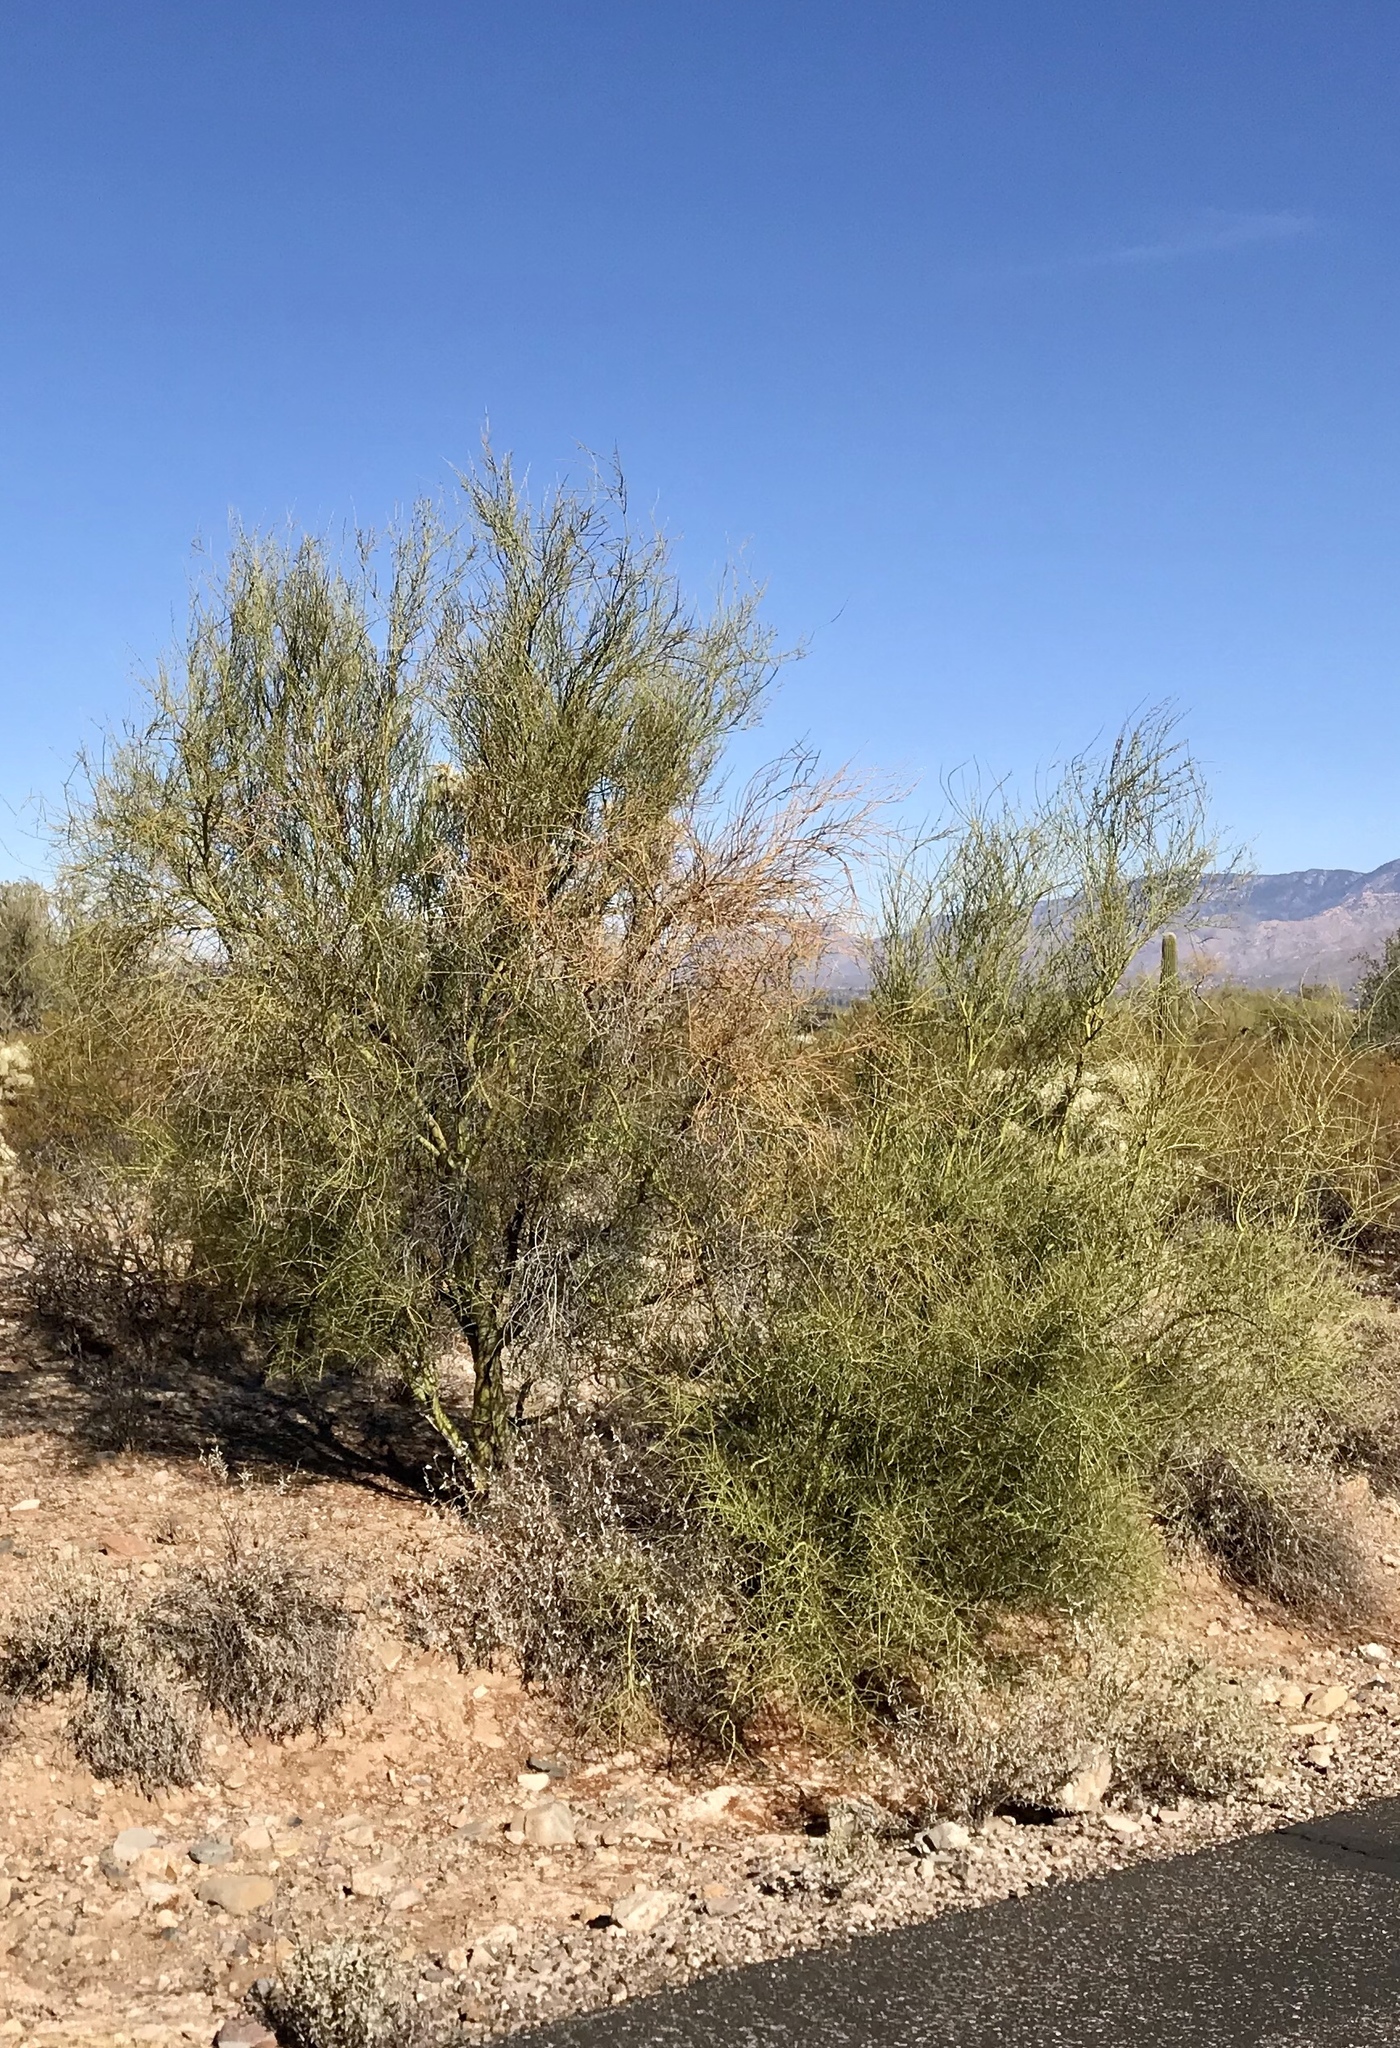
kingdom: Plantae
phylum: Tracheophyta
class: Magnoliopsida
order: Fabales
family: Fabaceae
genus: Parkinsonia
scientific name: Parkinsonia microphylla
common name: Yellow paloverde
